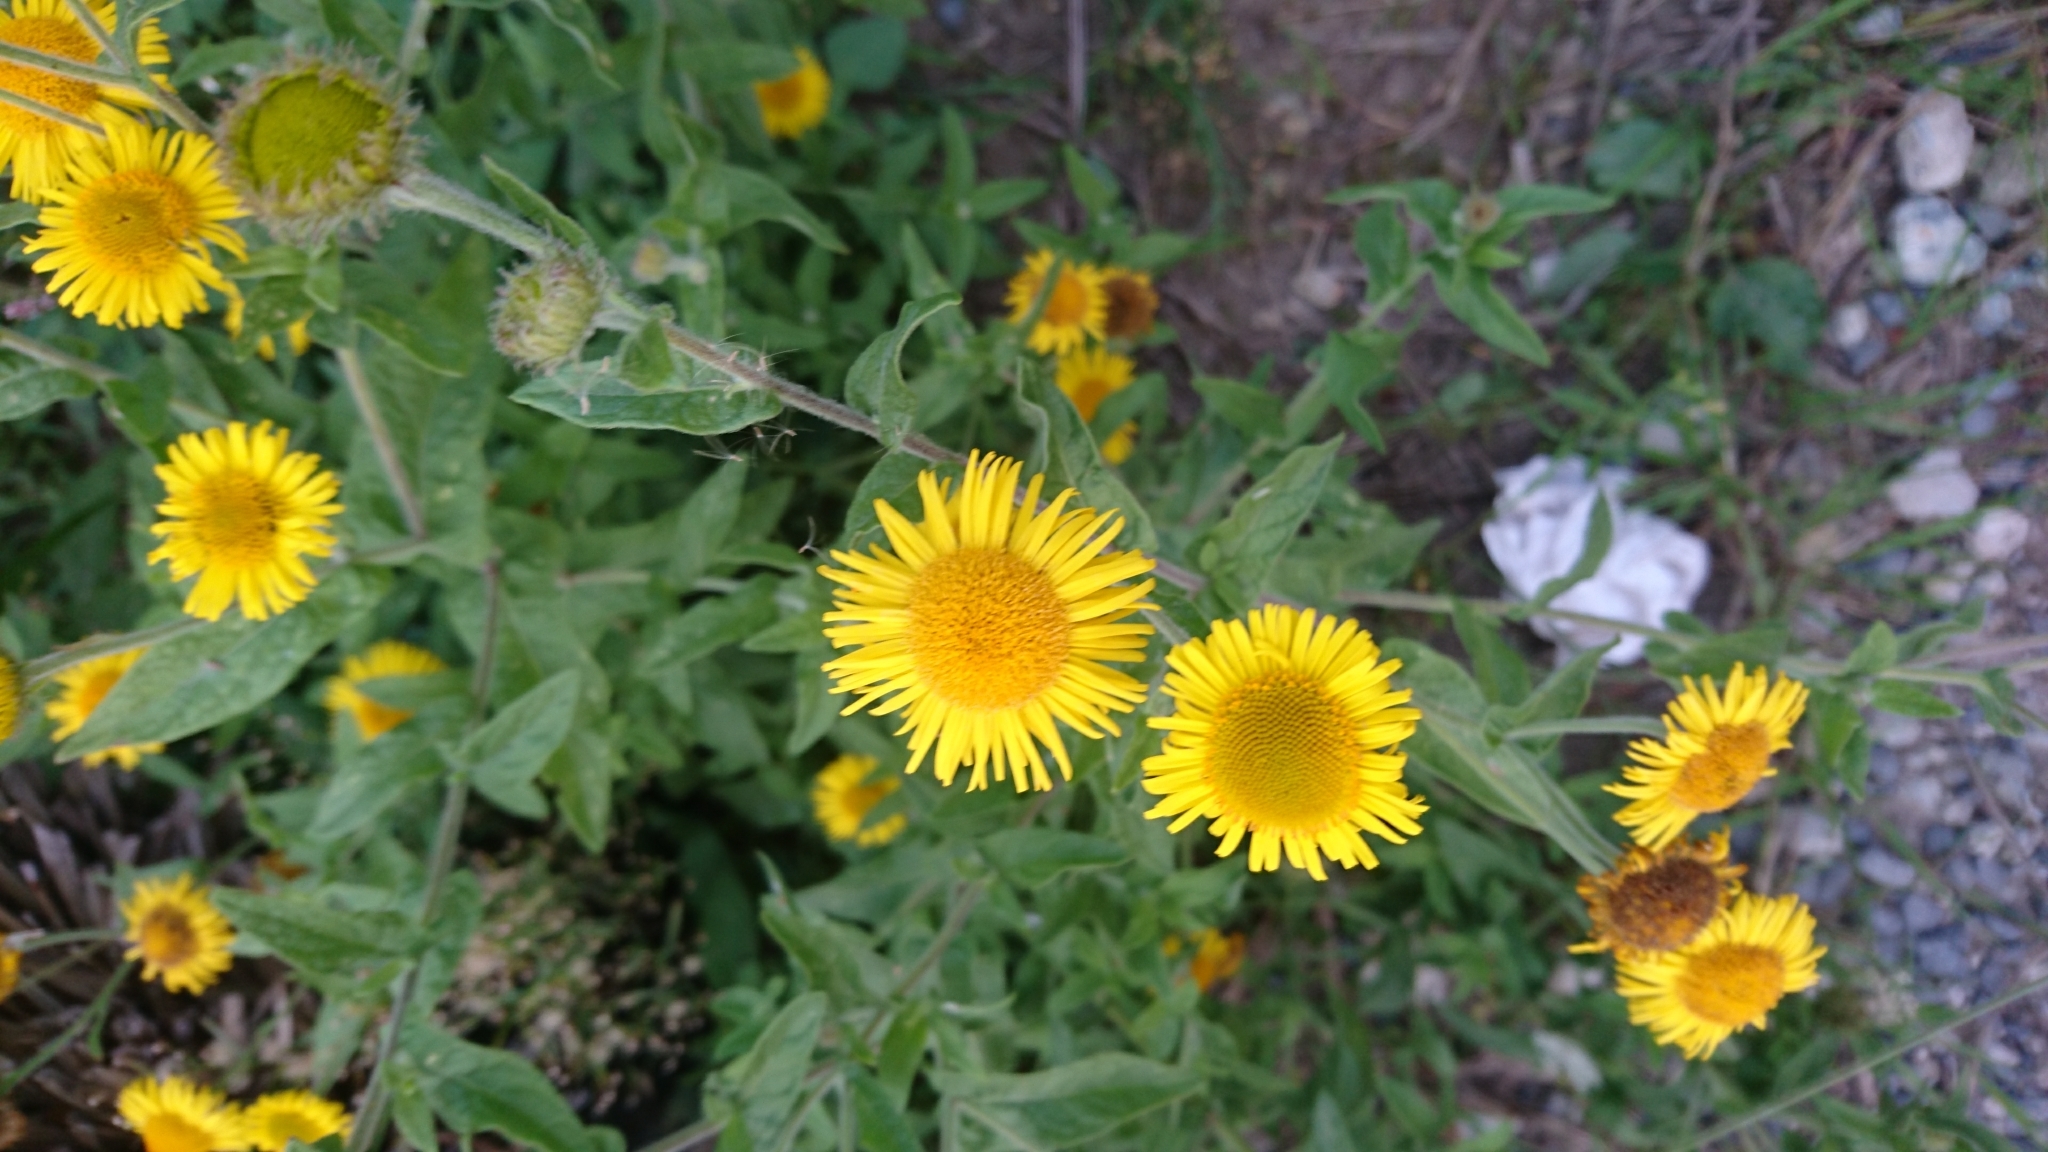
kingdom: Plantae
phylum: Tracheophyta
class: Magnoliopsida
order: Asterales
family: Asteraceae
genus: Pulicaria
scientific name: Pulicaria dysenterica
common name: Common fleabane
